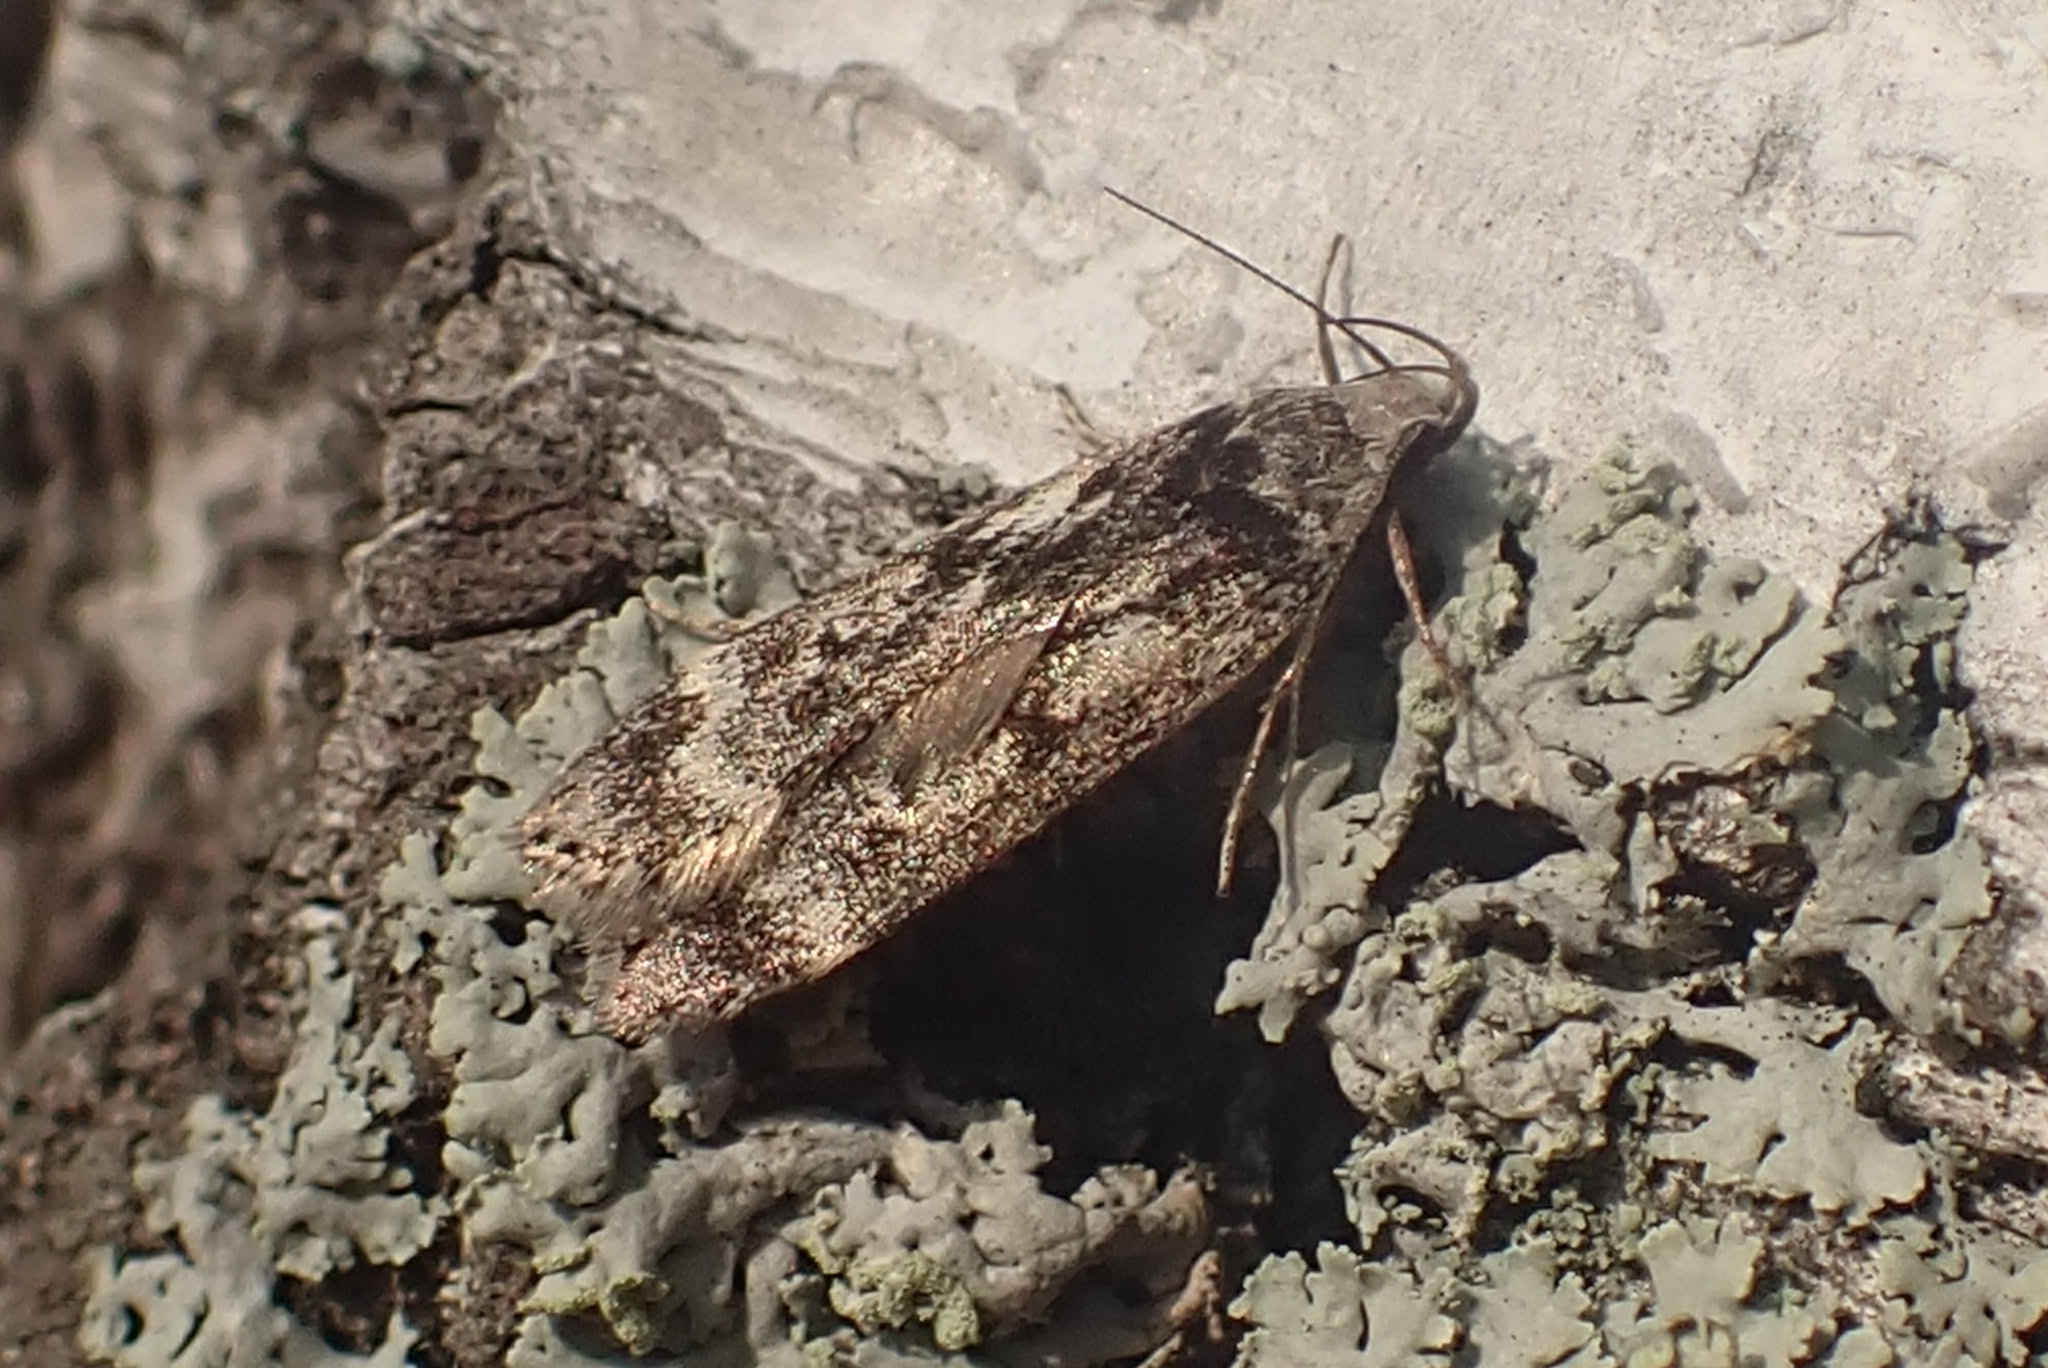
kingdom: Animalia
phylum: Arthropoda
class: Insecta
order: Lepidoptera
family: Gelechiidae
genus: Anacampsis
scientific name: Anacampsis blattariella
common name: Birch sober
